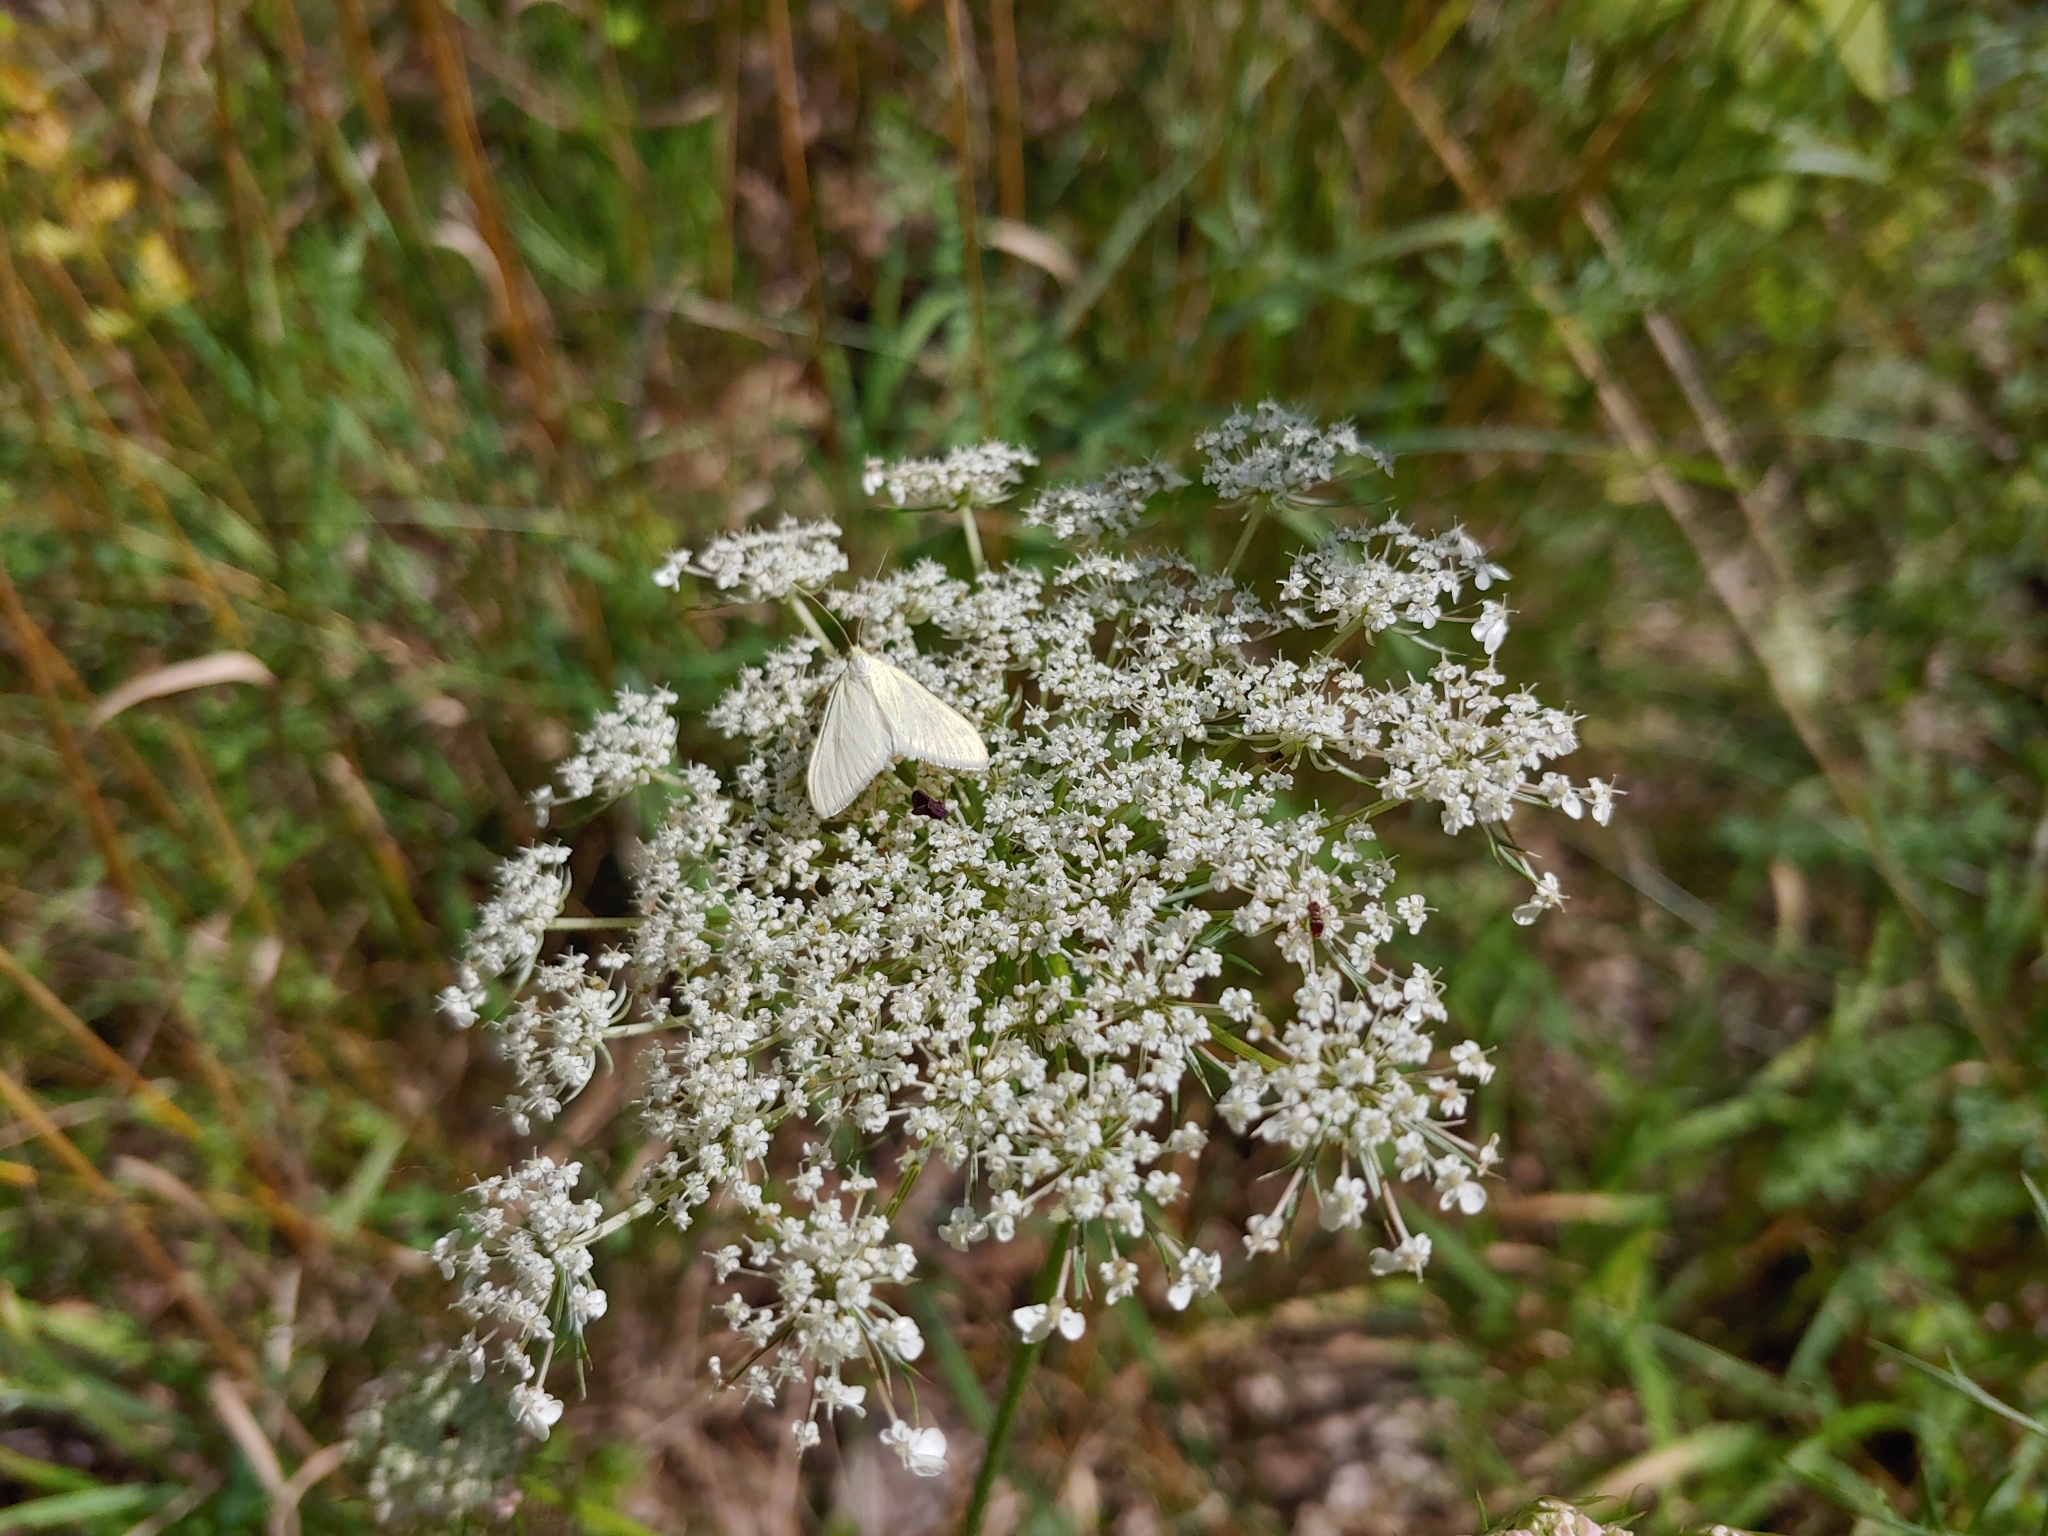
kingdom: Animalia
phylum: Arthropoda
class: Insecta
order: Lepidoptera
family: Crambidae
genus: Sitochroa
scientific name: Sitochroa palealis
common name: Greenish-yellow sitochroa moth
